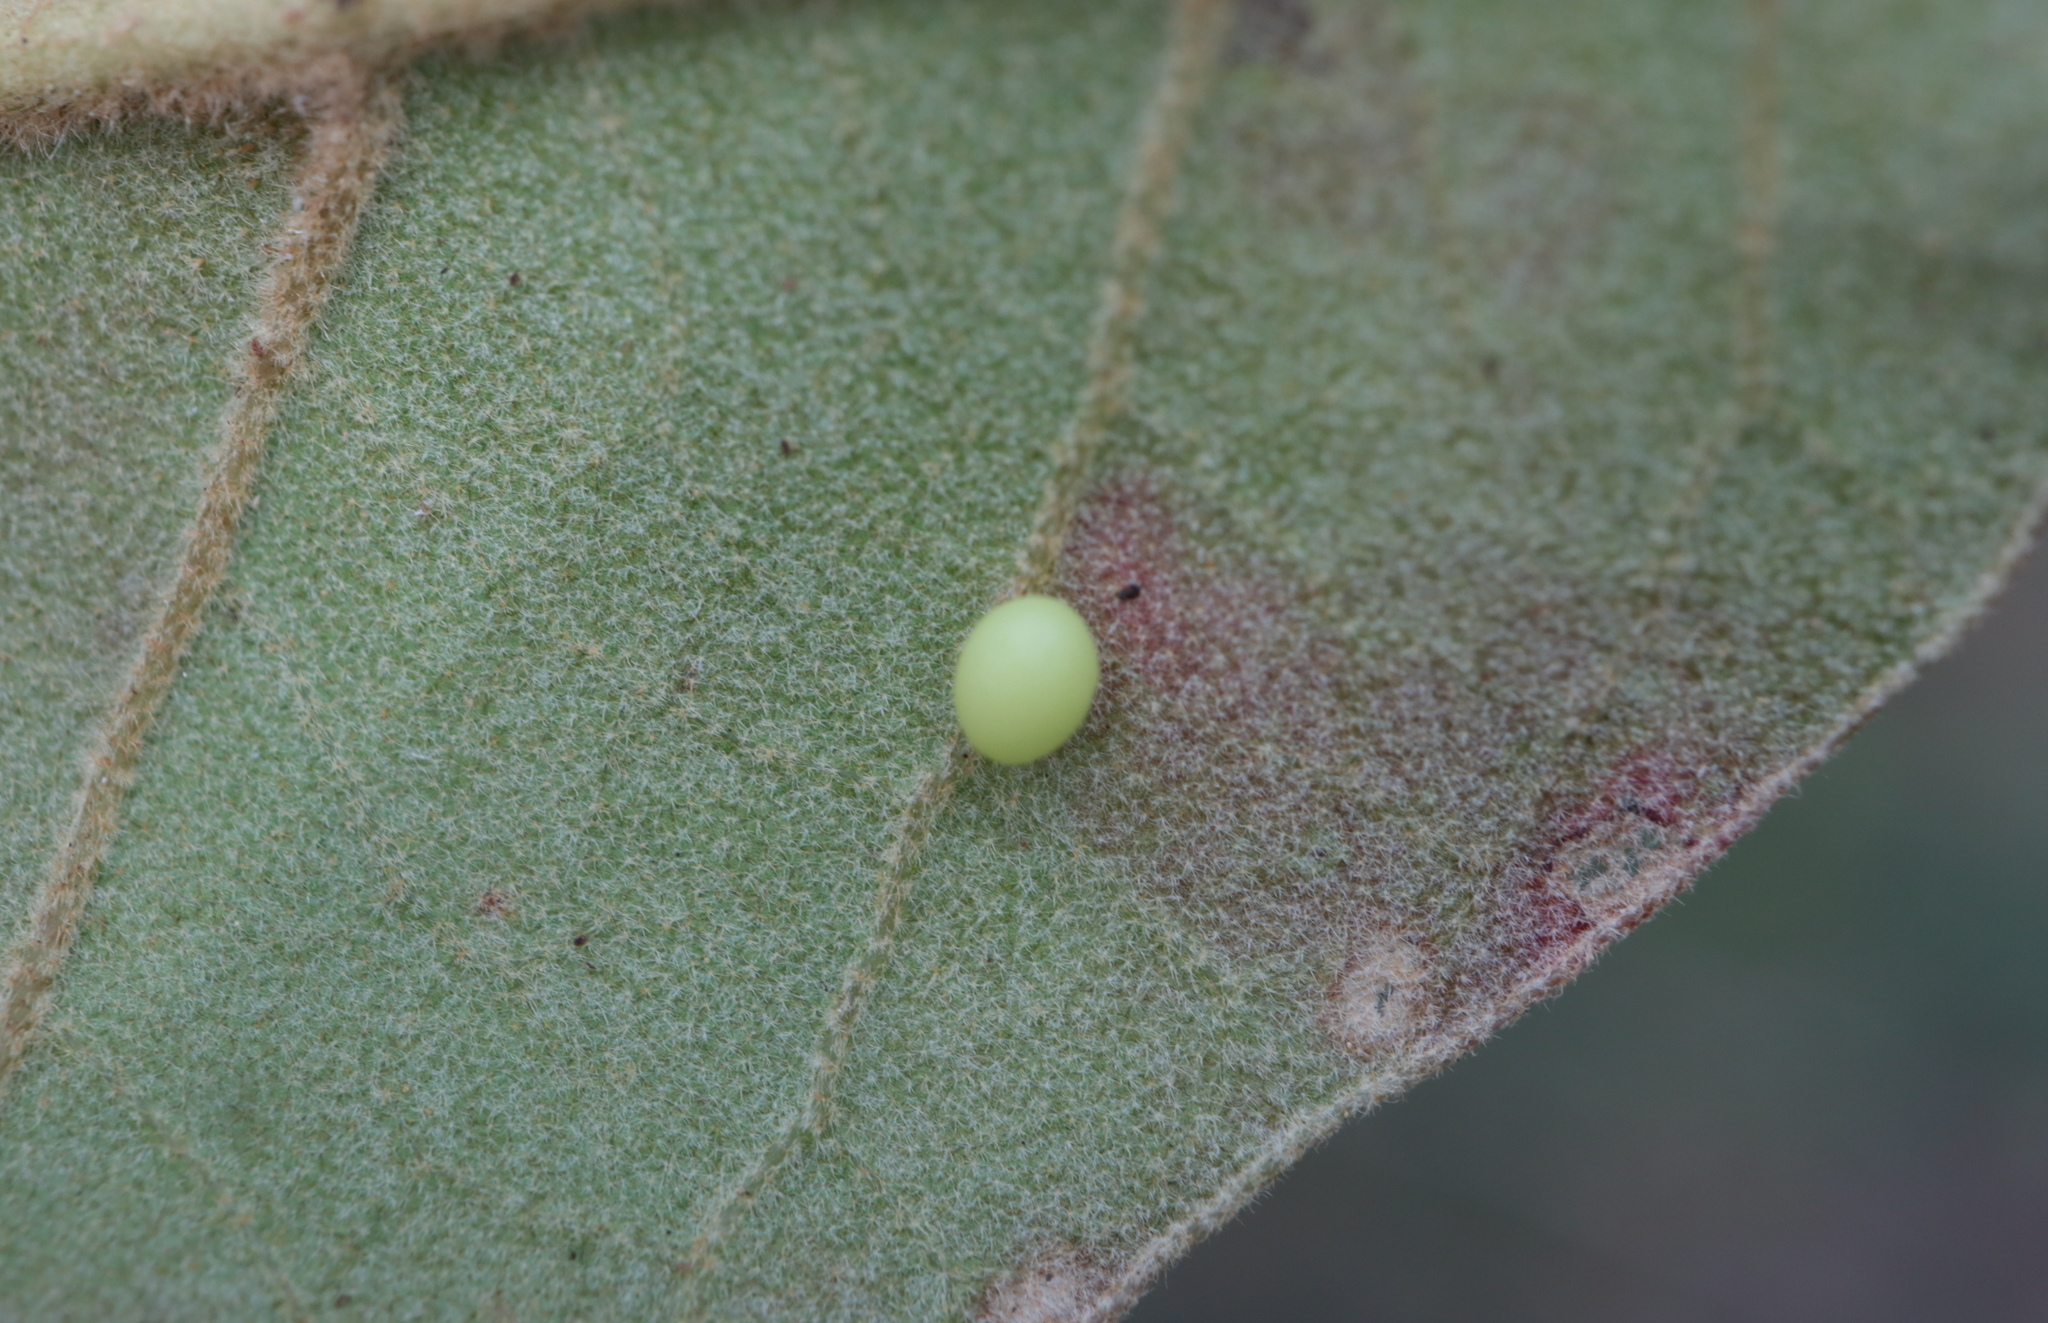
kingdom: Animalia
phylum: Arthropoda
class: Insecta
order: Hymenoptera
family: Cynipidae
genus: Zopheroteras
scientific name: Zopheroteras
